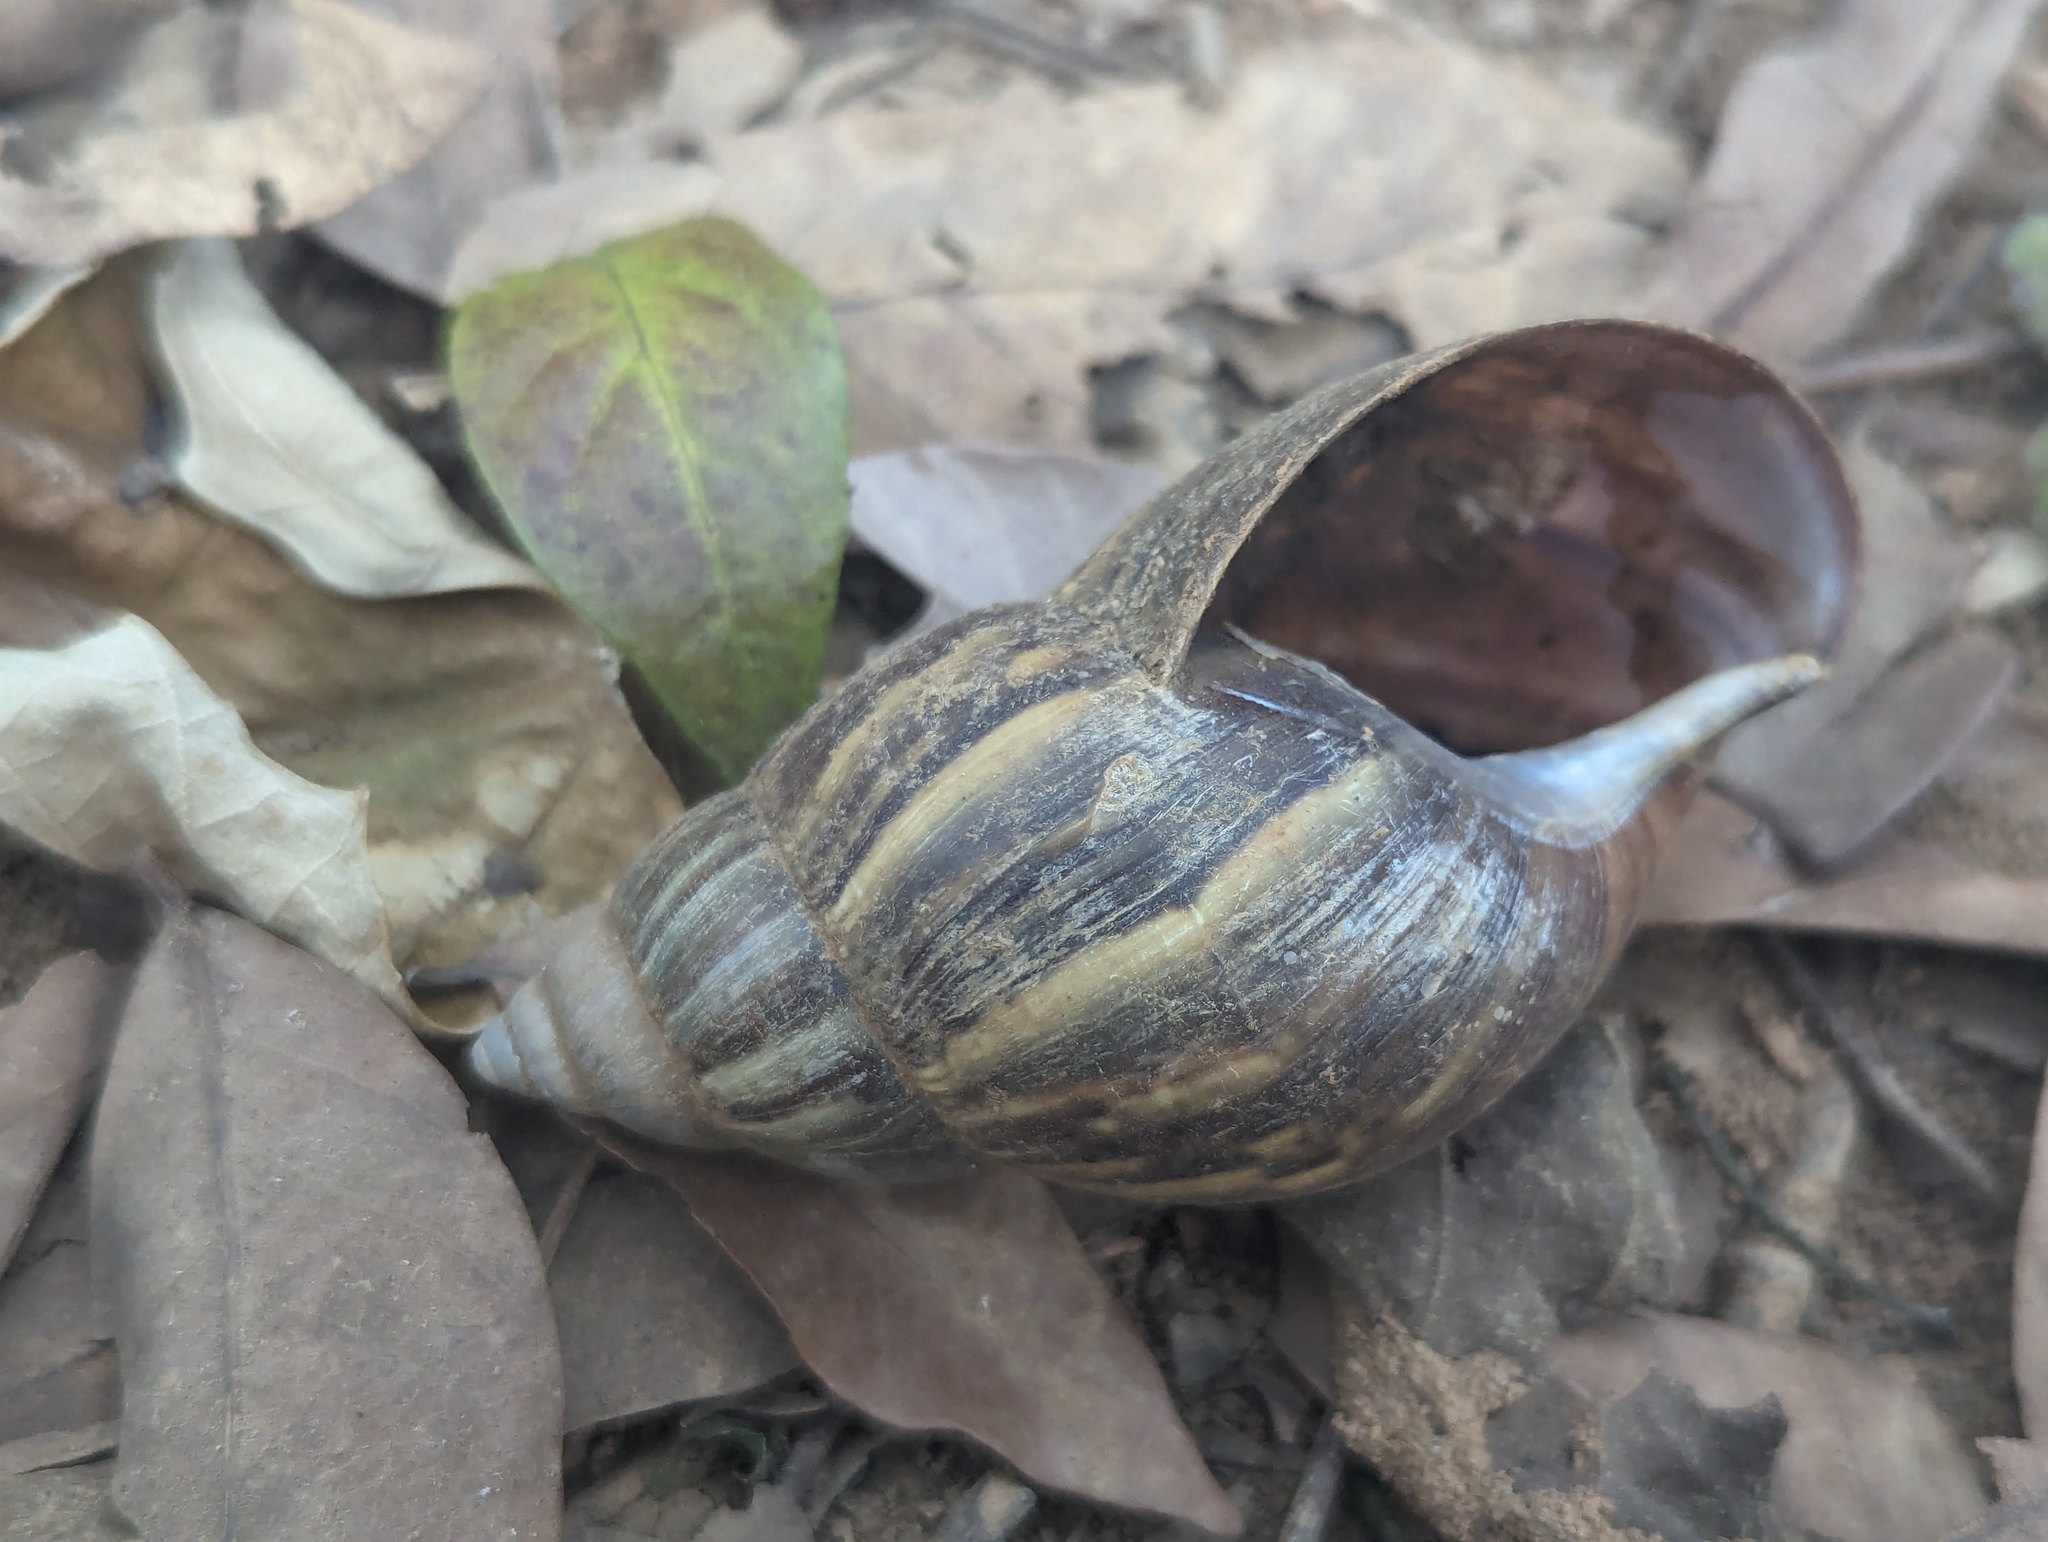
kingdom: Animalia
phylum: Mollusca
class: Gastropoda
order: Stylommatophora
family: Achatinidae
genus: Lissachatina
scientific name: Lissachatina fulica
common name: Giant african snail
